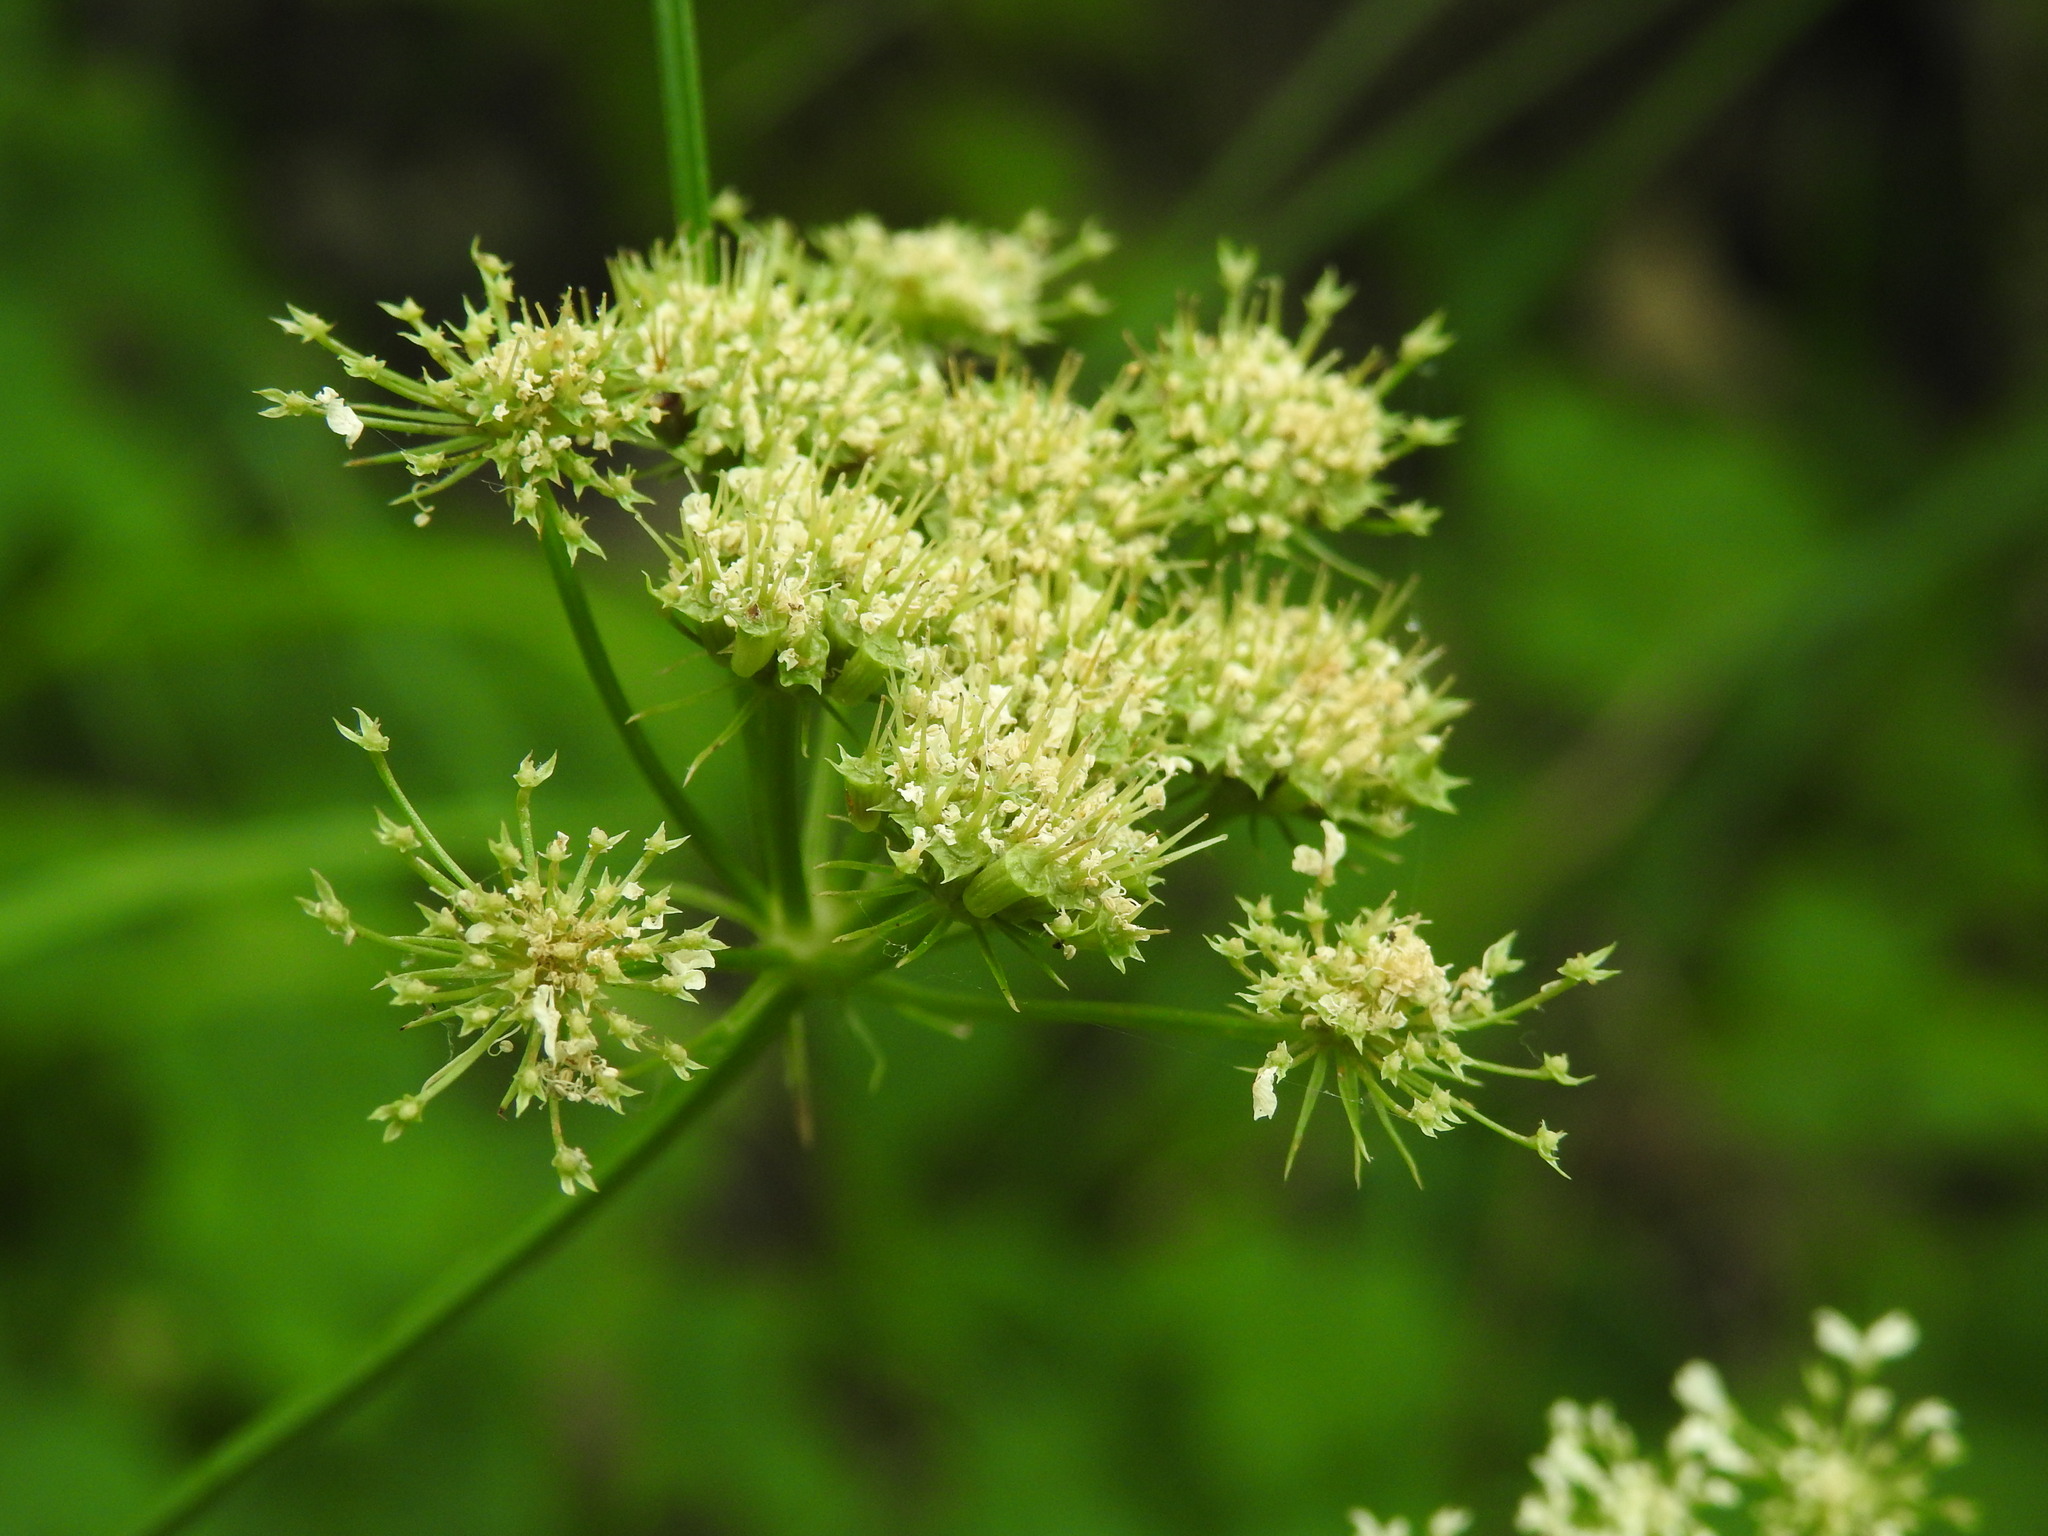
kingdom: Plantae
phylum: Tracheophyta
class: Magnoliopsida
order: Apiales
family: Apiaceae
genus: Oenanthe
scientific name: Oenanthe pimpinelloides
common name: Corky-fruited water-dropwort
